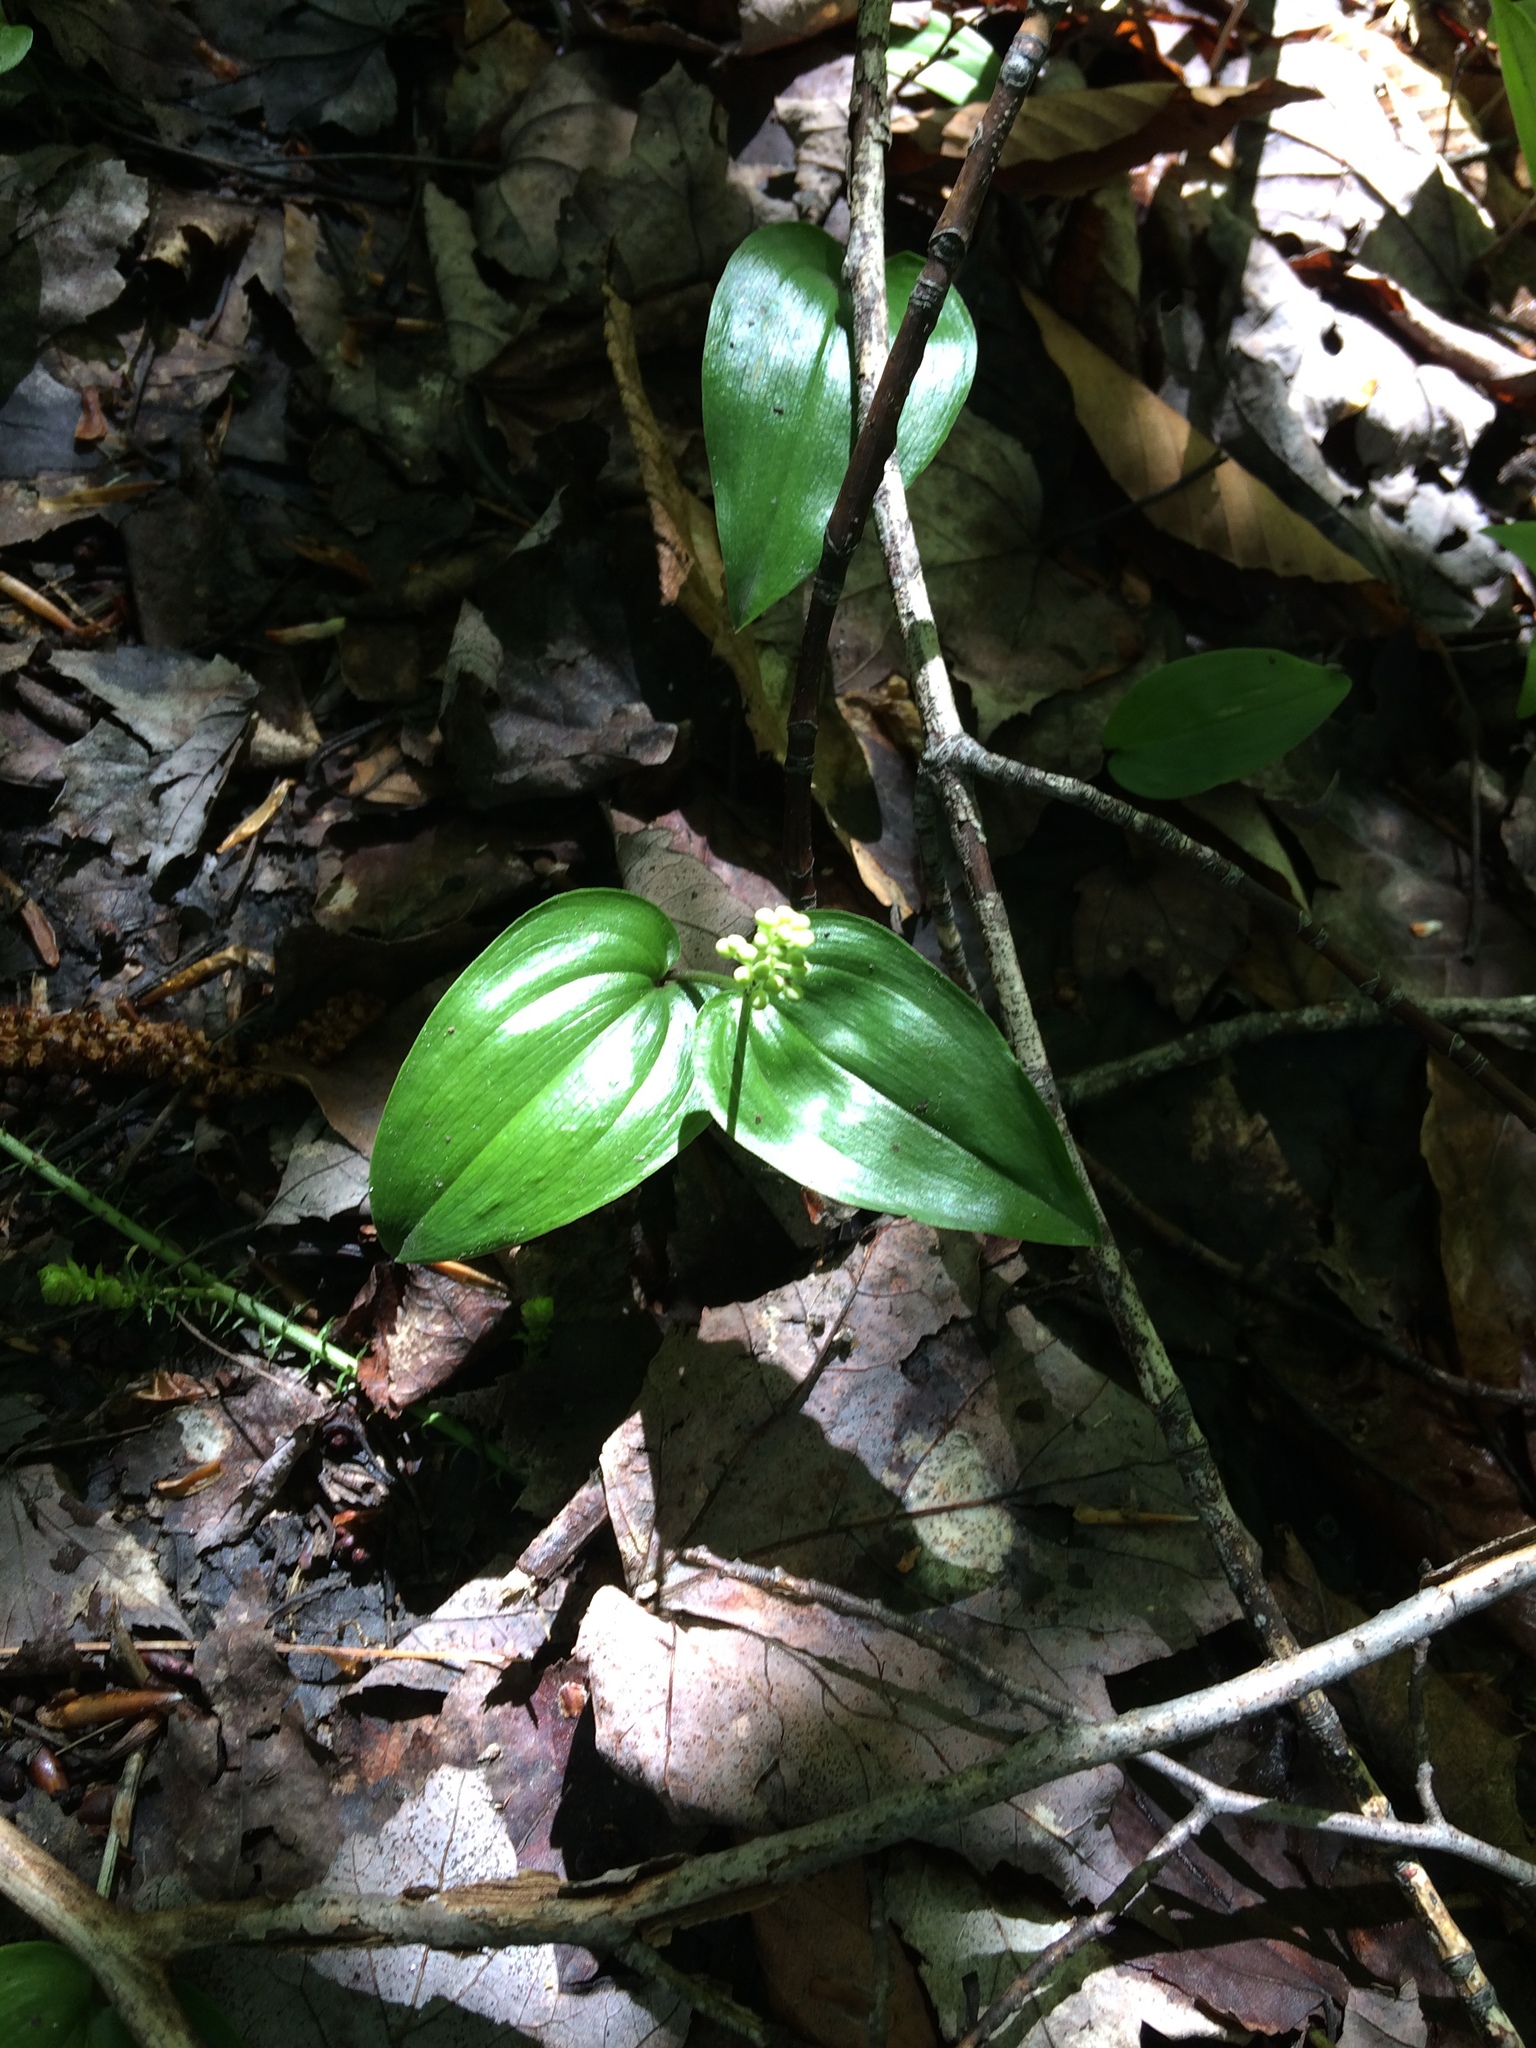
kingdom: Plantae
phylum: Tracheophyta
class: Liliopsida
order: Asparagales
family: Asparagaceae
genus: Maianthemum
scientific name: Maianthemum canadense
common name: False lily-of-the-valley
